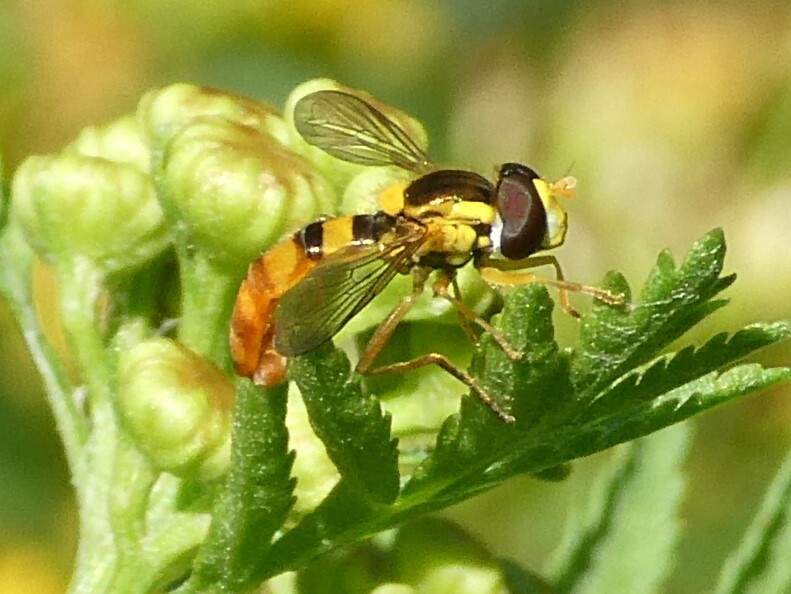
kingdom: Animalia
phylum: Arthropoda
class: Insecta
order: Diptera
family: Syrphidae
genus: Sphaerophoria
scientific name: Sphaerophoria
